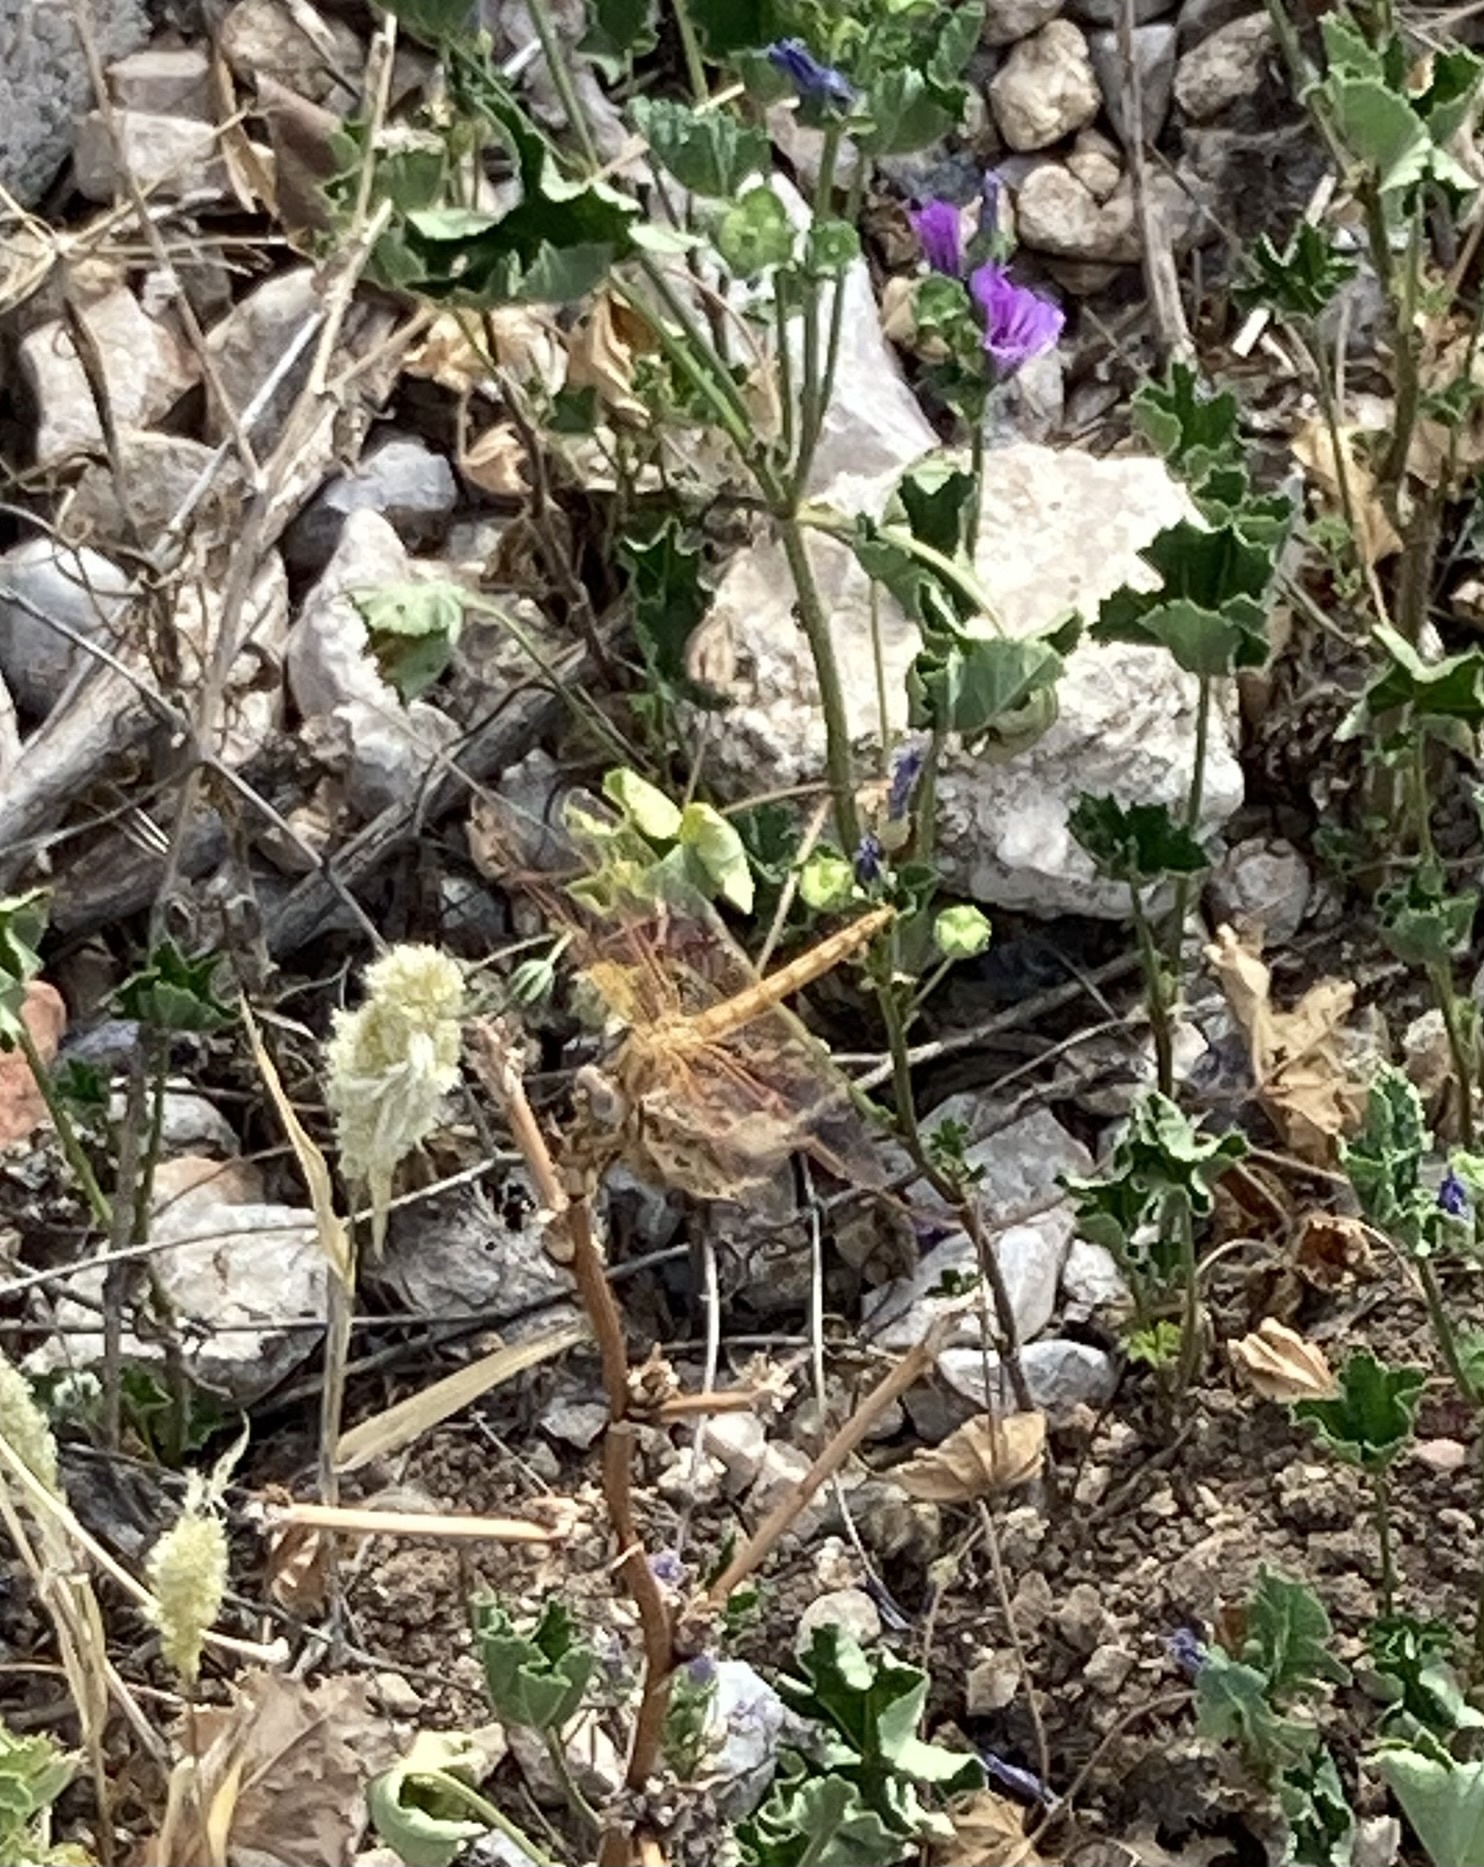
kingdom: Animalia
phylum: Arthropoda
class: Insecta
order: Odonata
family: Libellulidae
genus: Trithemis
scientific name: Trithemis kirbyi
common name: Kirby's dropwing
